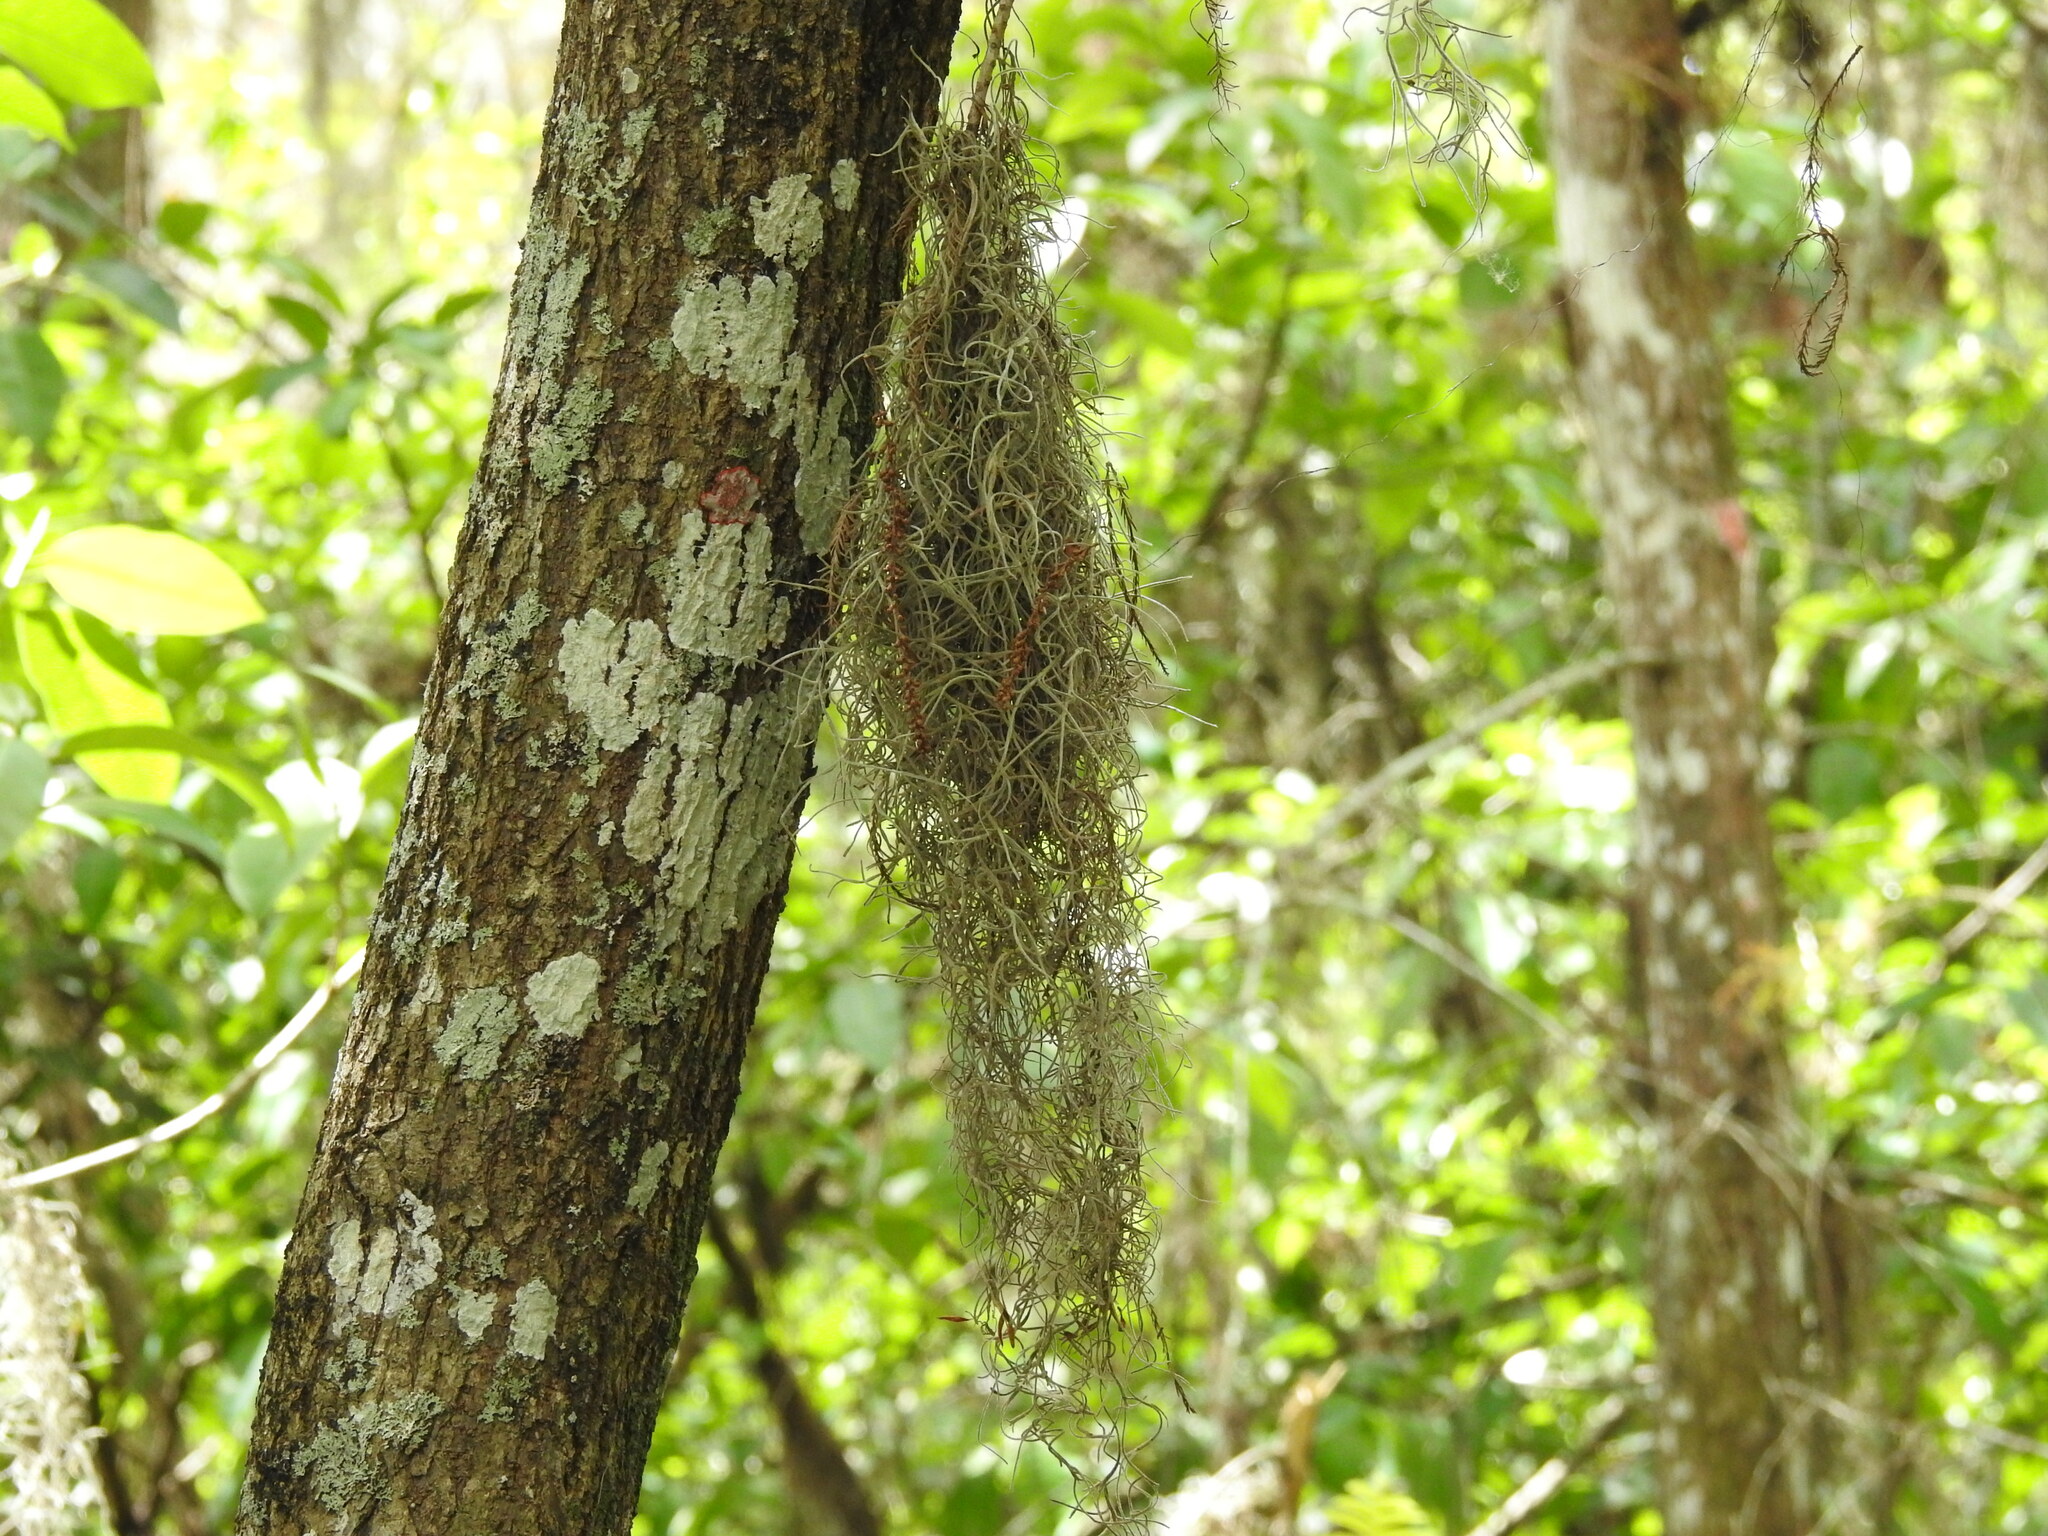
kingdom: Plantae
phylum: Tracheophyta
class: Liliopsida
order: Poales
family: Bromeliaceae
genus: Tillandsia
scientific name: Tillandsia usneoides
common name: Spanish moss
